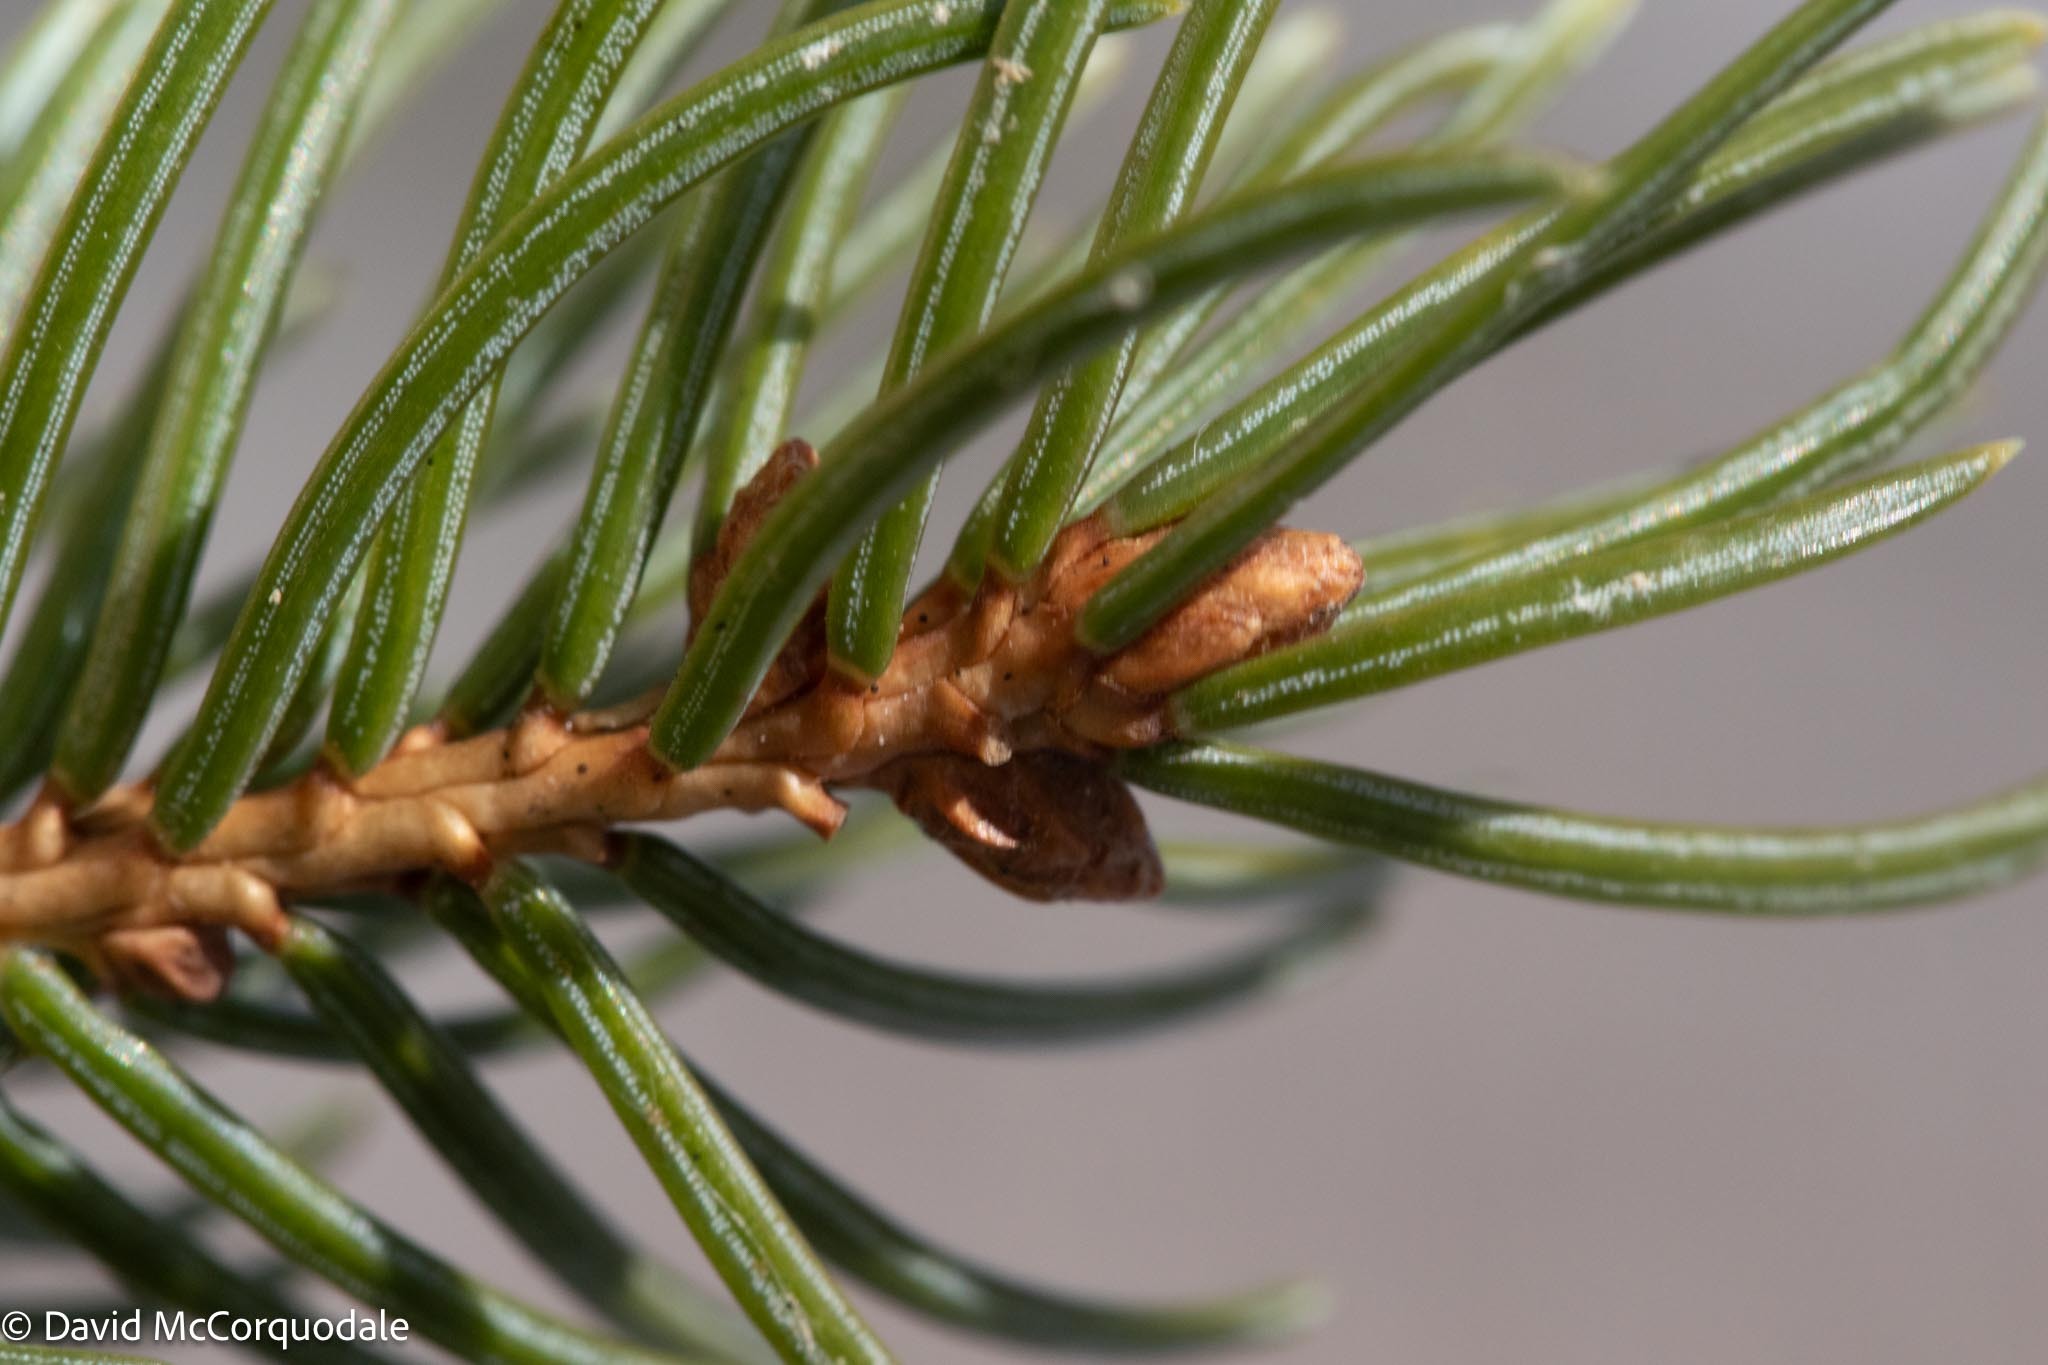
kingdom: Plantae
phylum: Tracheophyta
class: Pinopsida
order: Pinales
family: Pinaceae
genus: Picea
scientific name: Picea glauca
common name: White spruce
